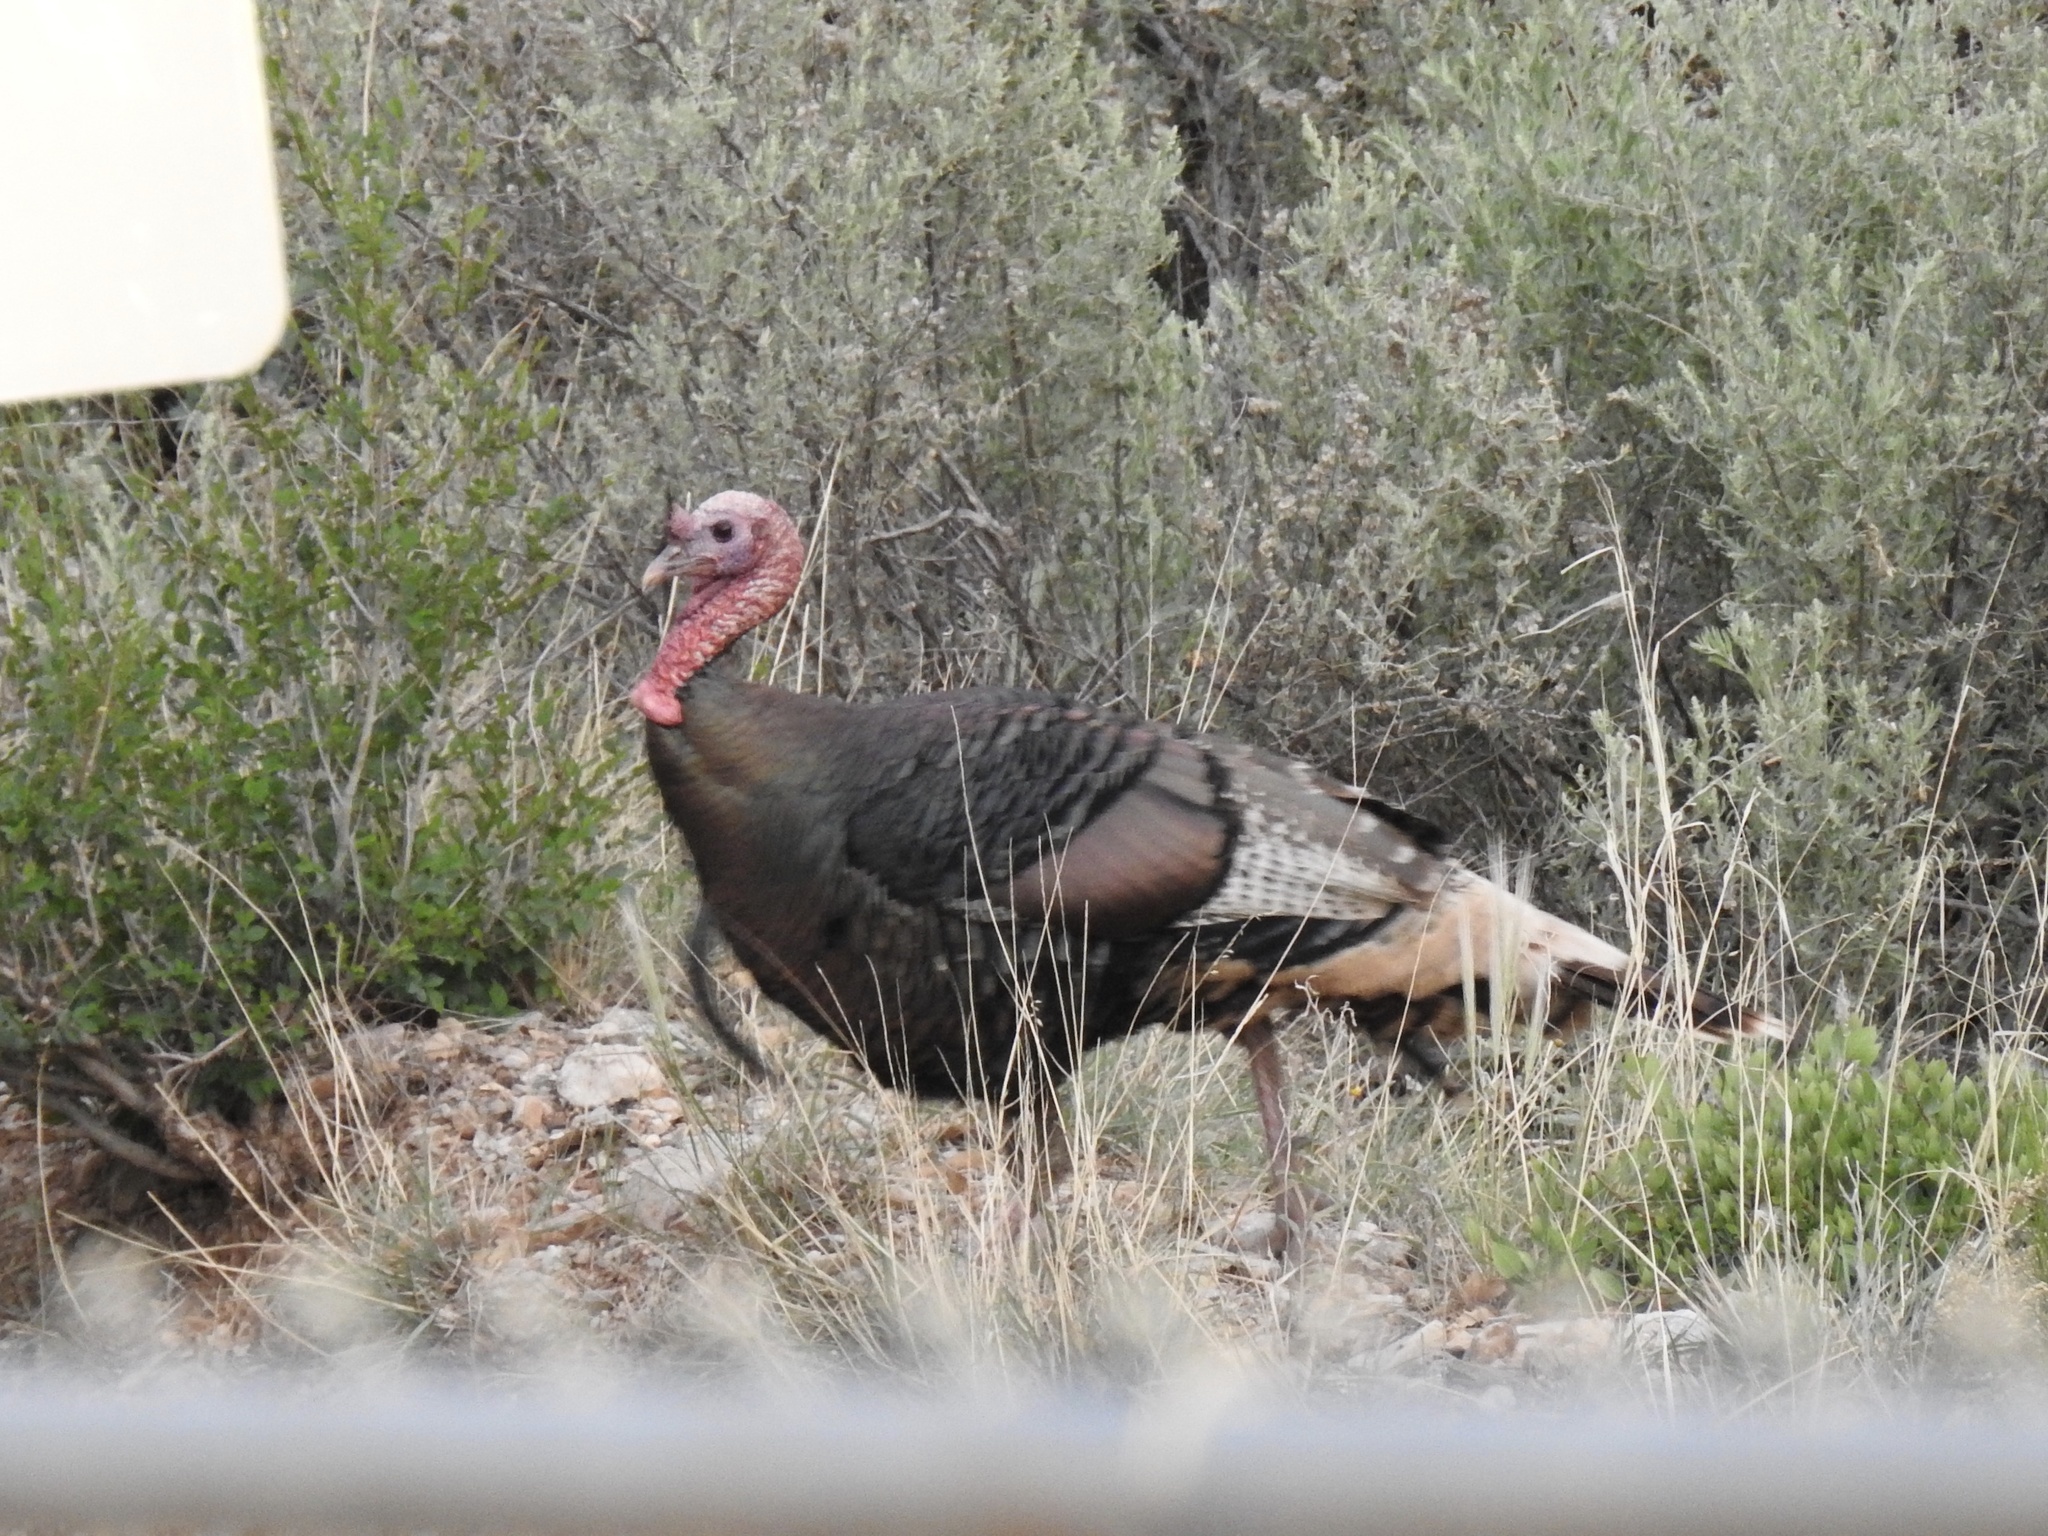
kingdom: Animalia
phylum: Chordata
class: Aves
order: Galliformes
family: Phasianidae
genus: Meleagris
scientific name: Meleagris gallopavo
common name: Wild turkey
